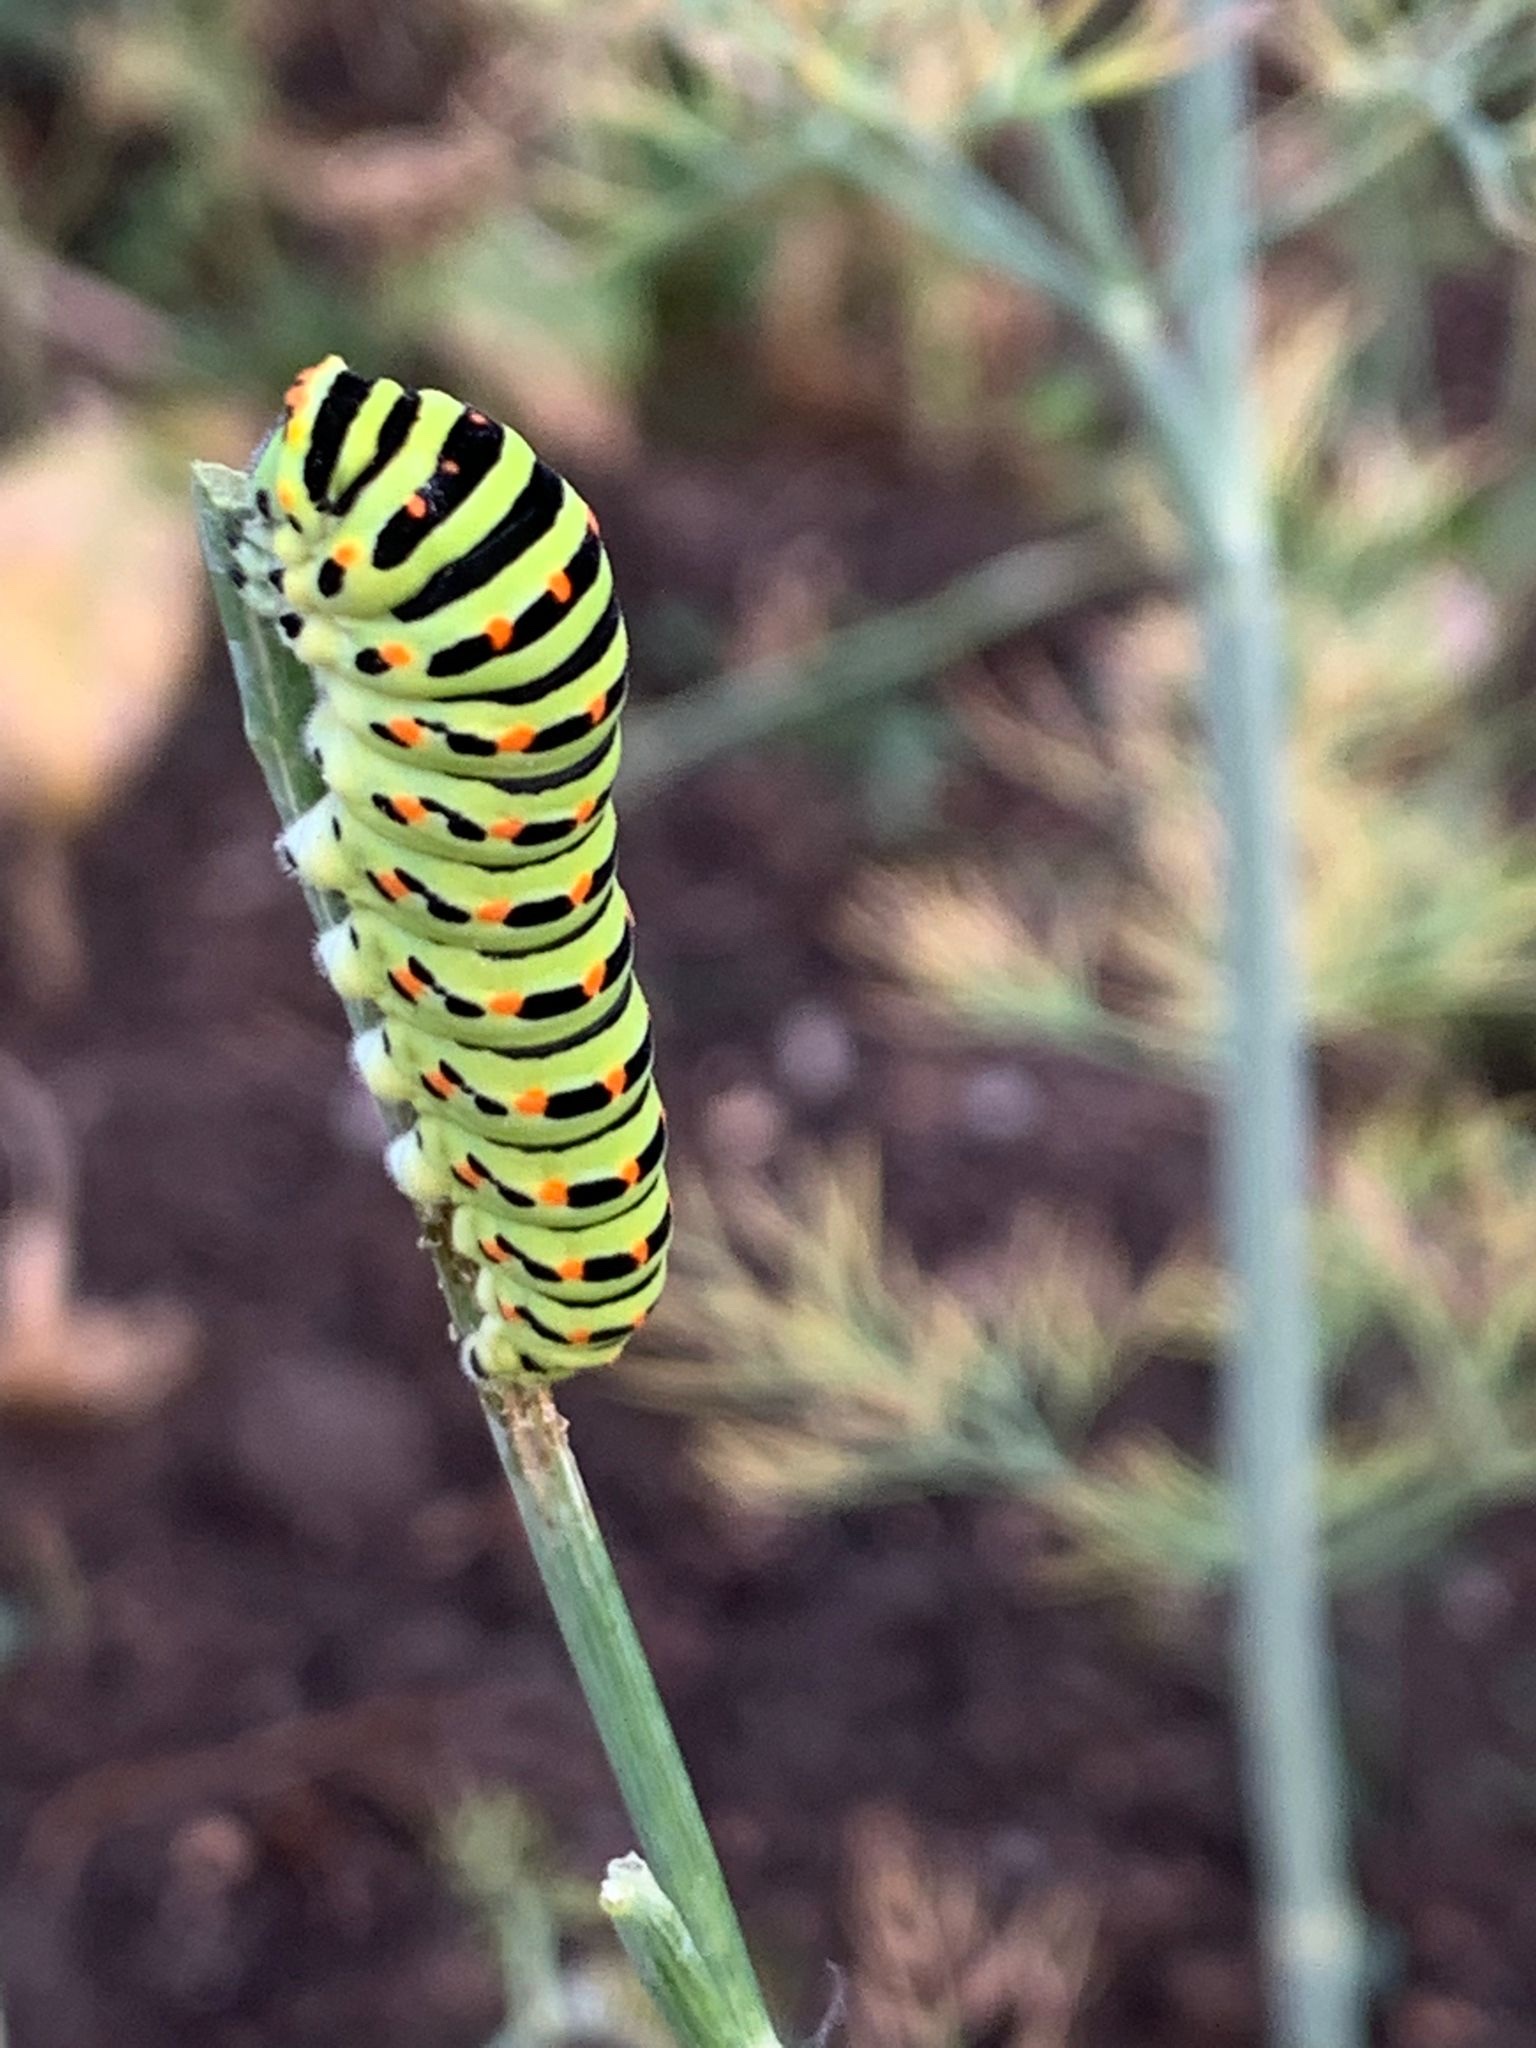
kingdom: Animalia
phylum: Arthropoda
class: Insecta
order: Lepidoptera
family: Papilionidae
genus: Papilio
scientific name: Papilio machaon
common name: Swallowtail
